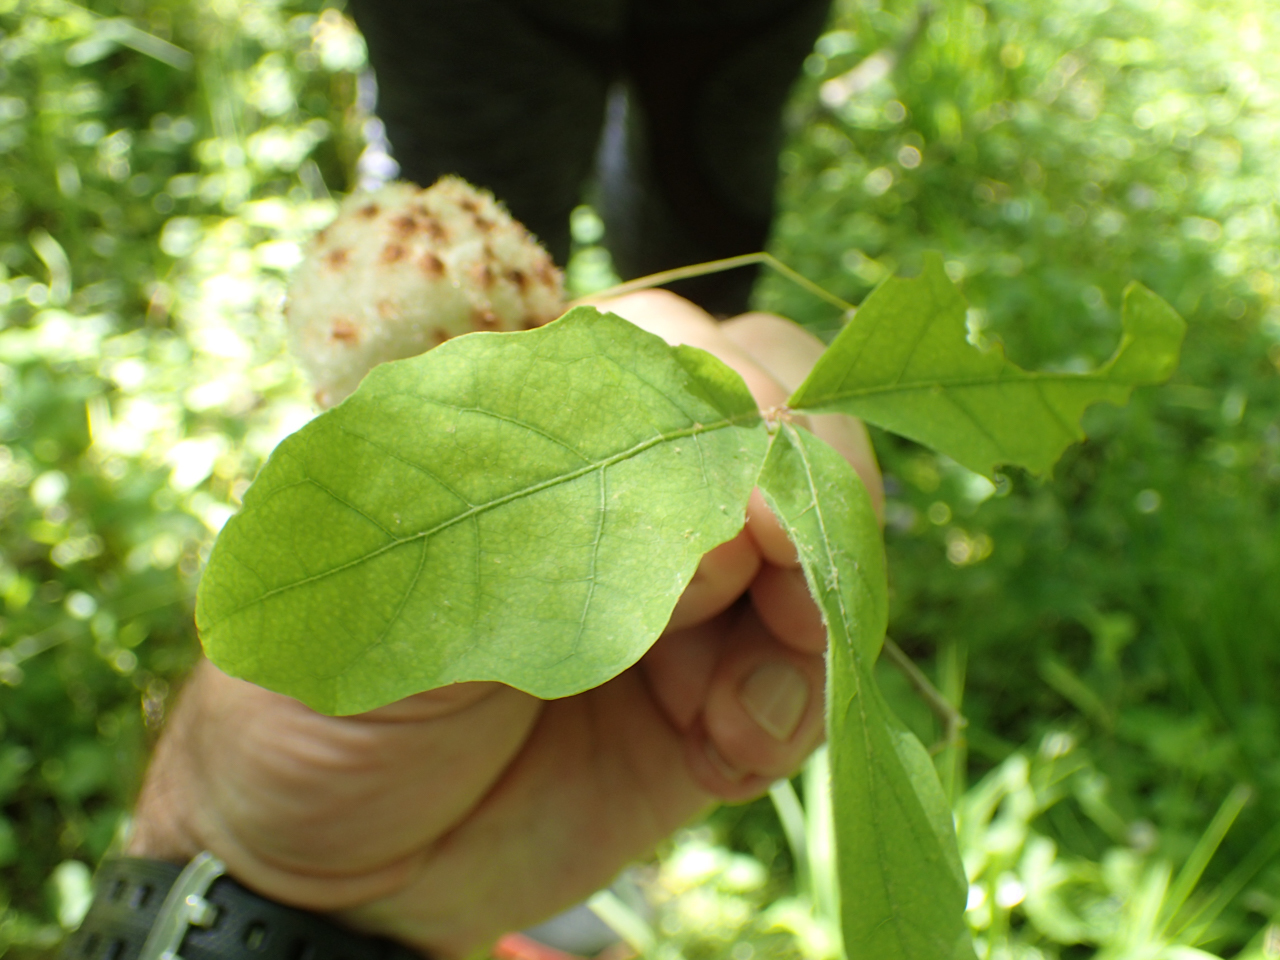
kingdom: Plantae
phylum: Tracheophyta
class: Magnoliopsida
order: Fagales
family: Fagaceae
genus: Quercus
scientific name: Quercus alba
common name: White oak
